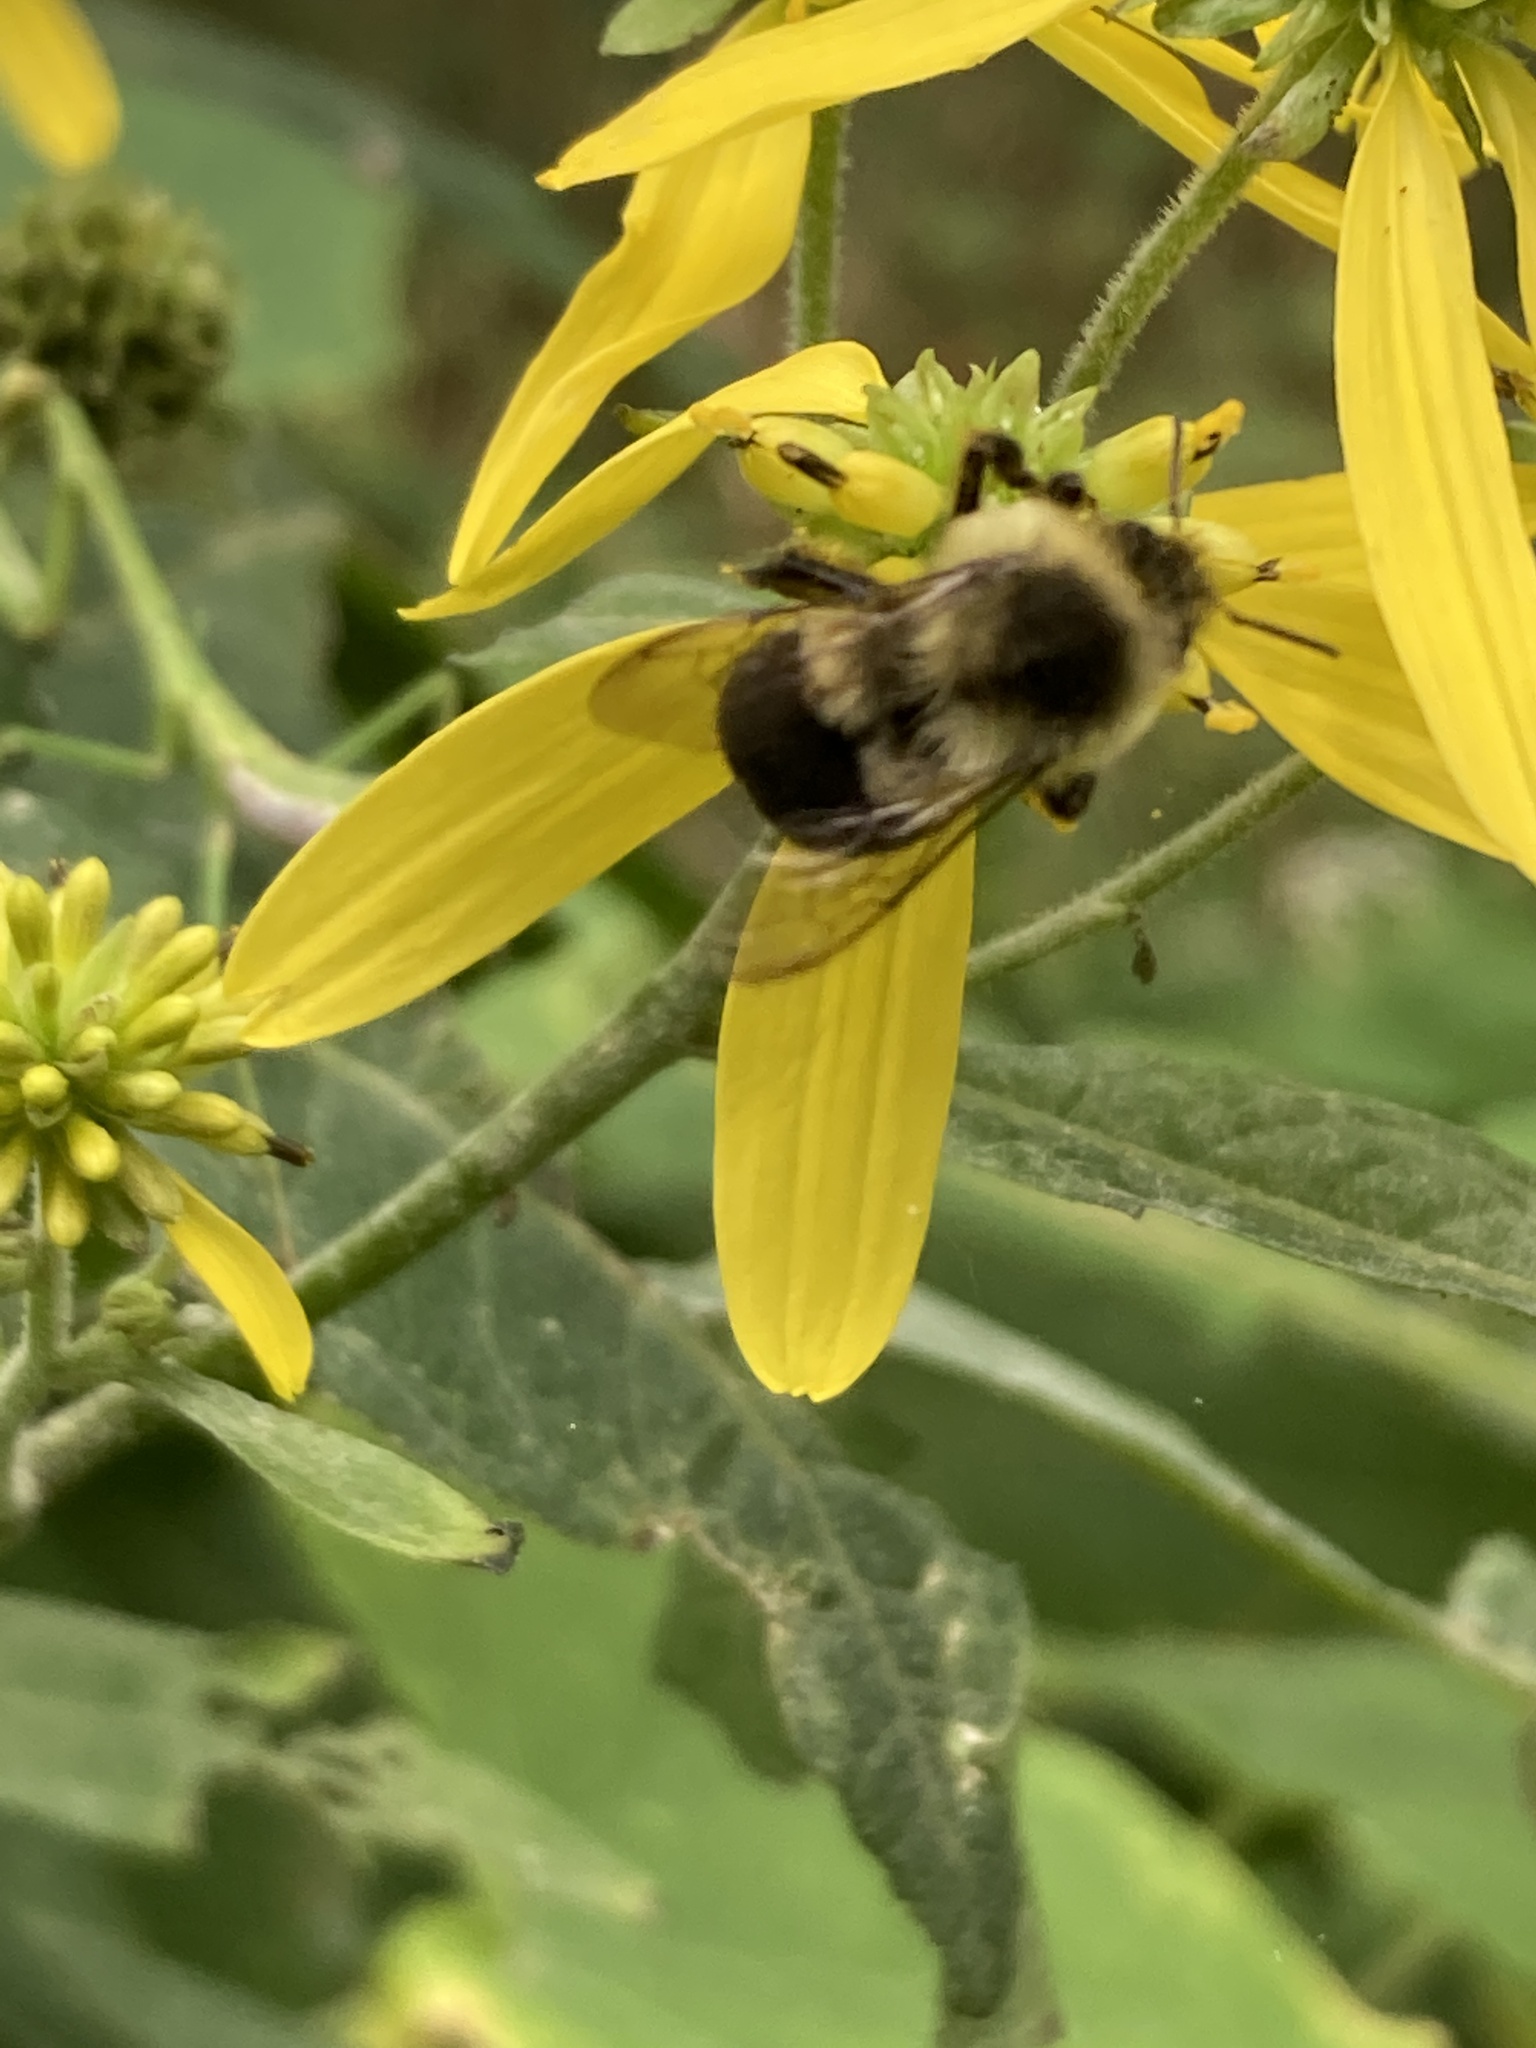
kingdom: Animalia
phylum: Arthropoda
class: Insecta
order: Hymenoptera
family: Apidae
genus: Bombus
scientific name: Bombus impatiens
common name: Common eastern bumble bee
